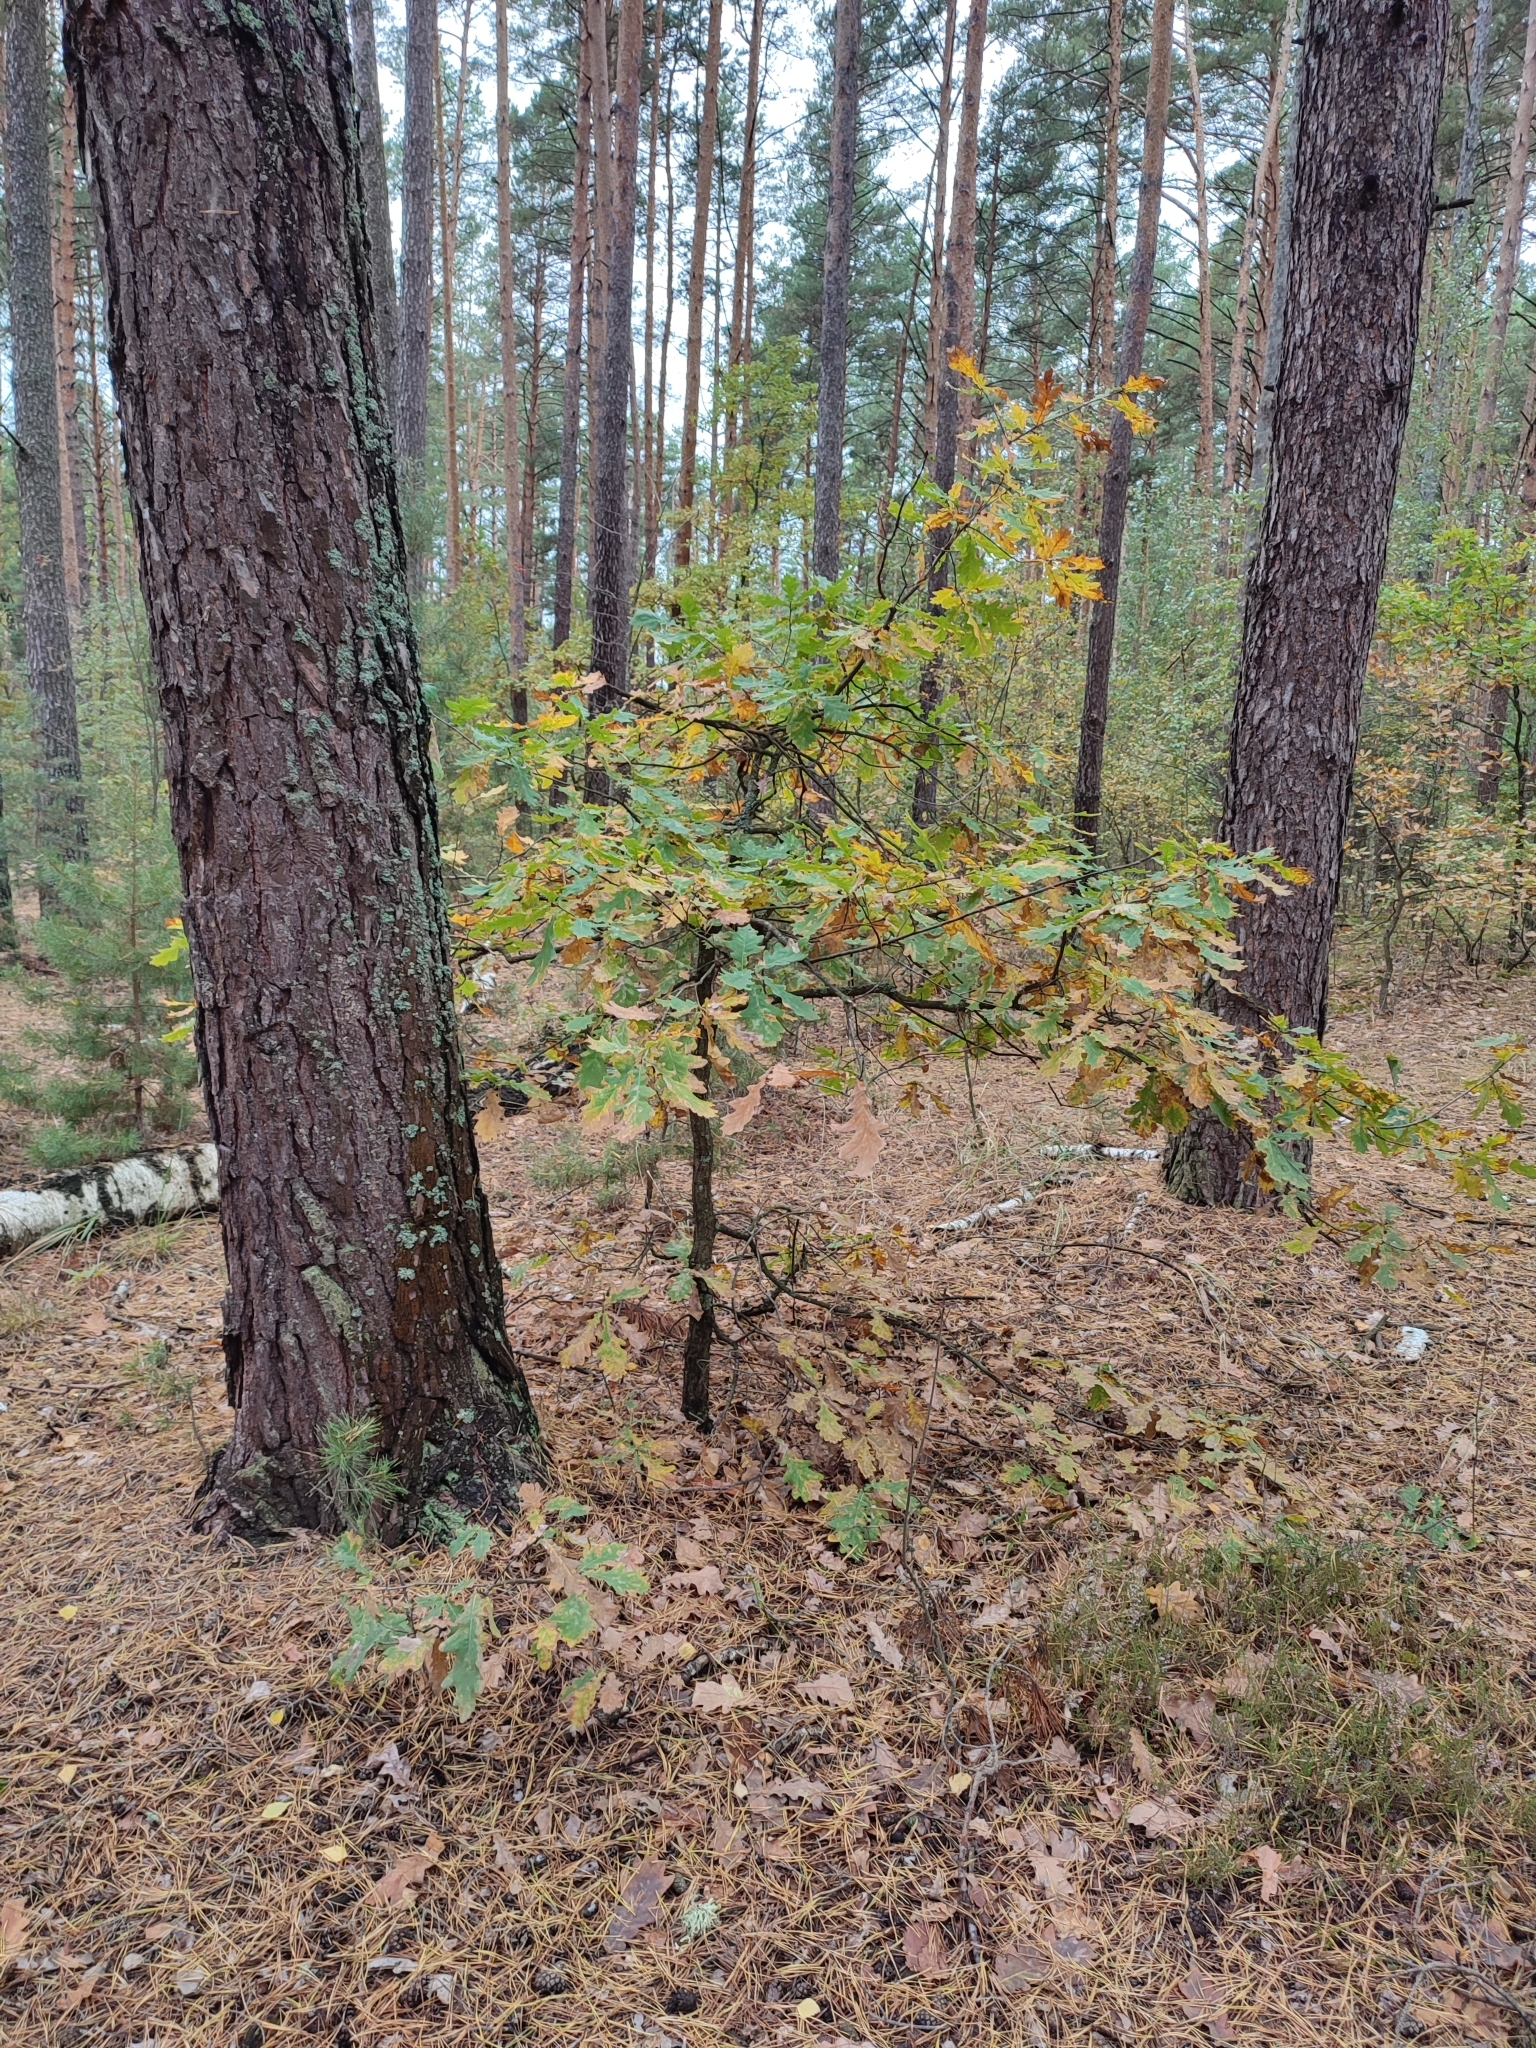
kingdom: Plantae
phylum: Tracheophyta
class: Magnoliopsida
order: Fagales
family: Fagaceae
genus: Quercus
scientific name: Quercus robur
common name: Pedunculate oak
